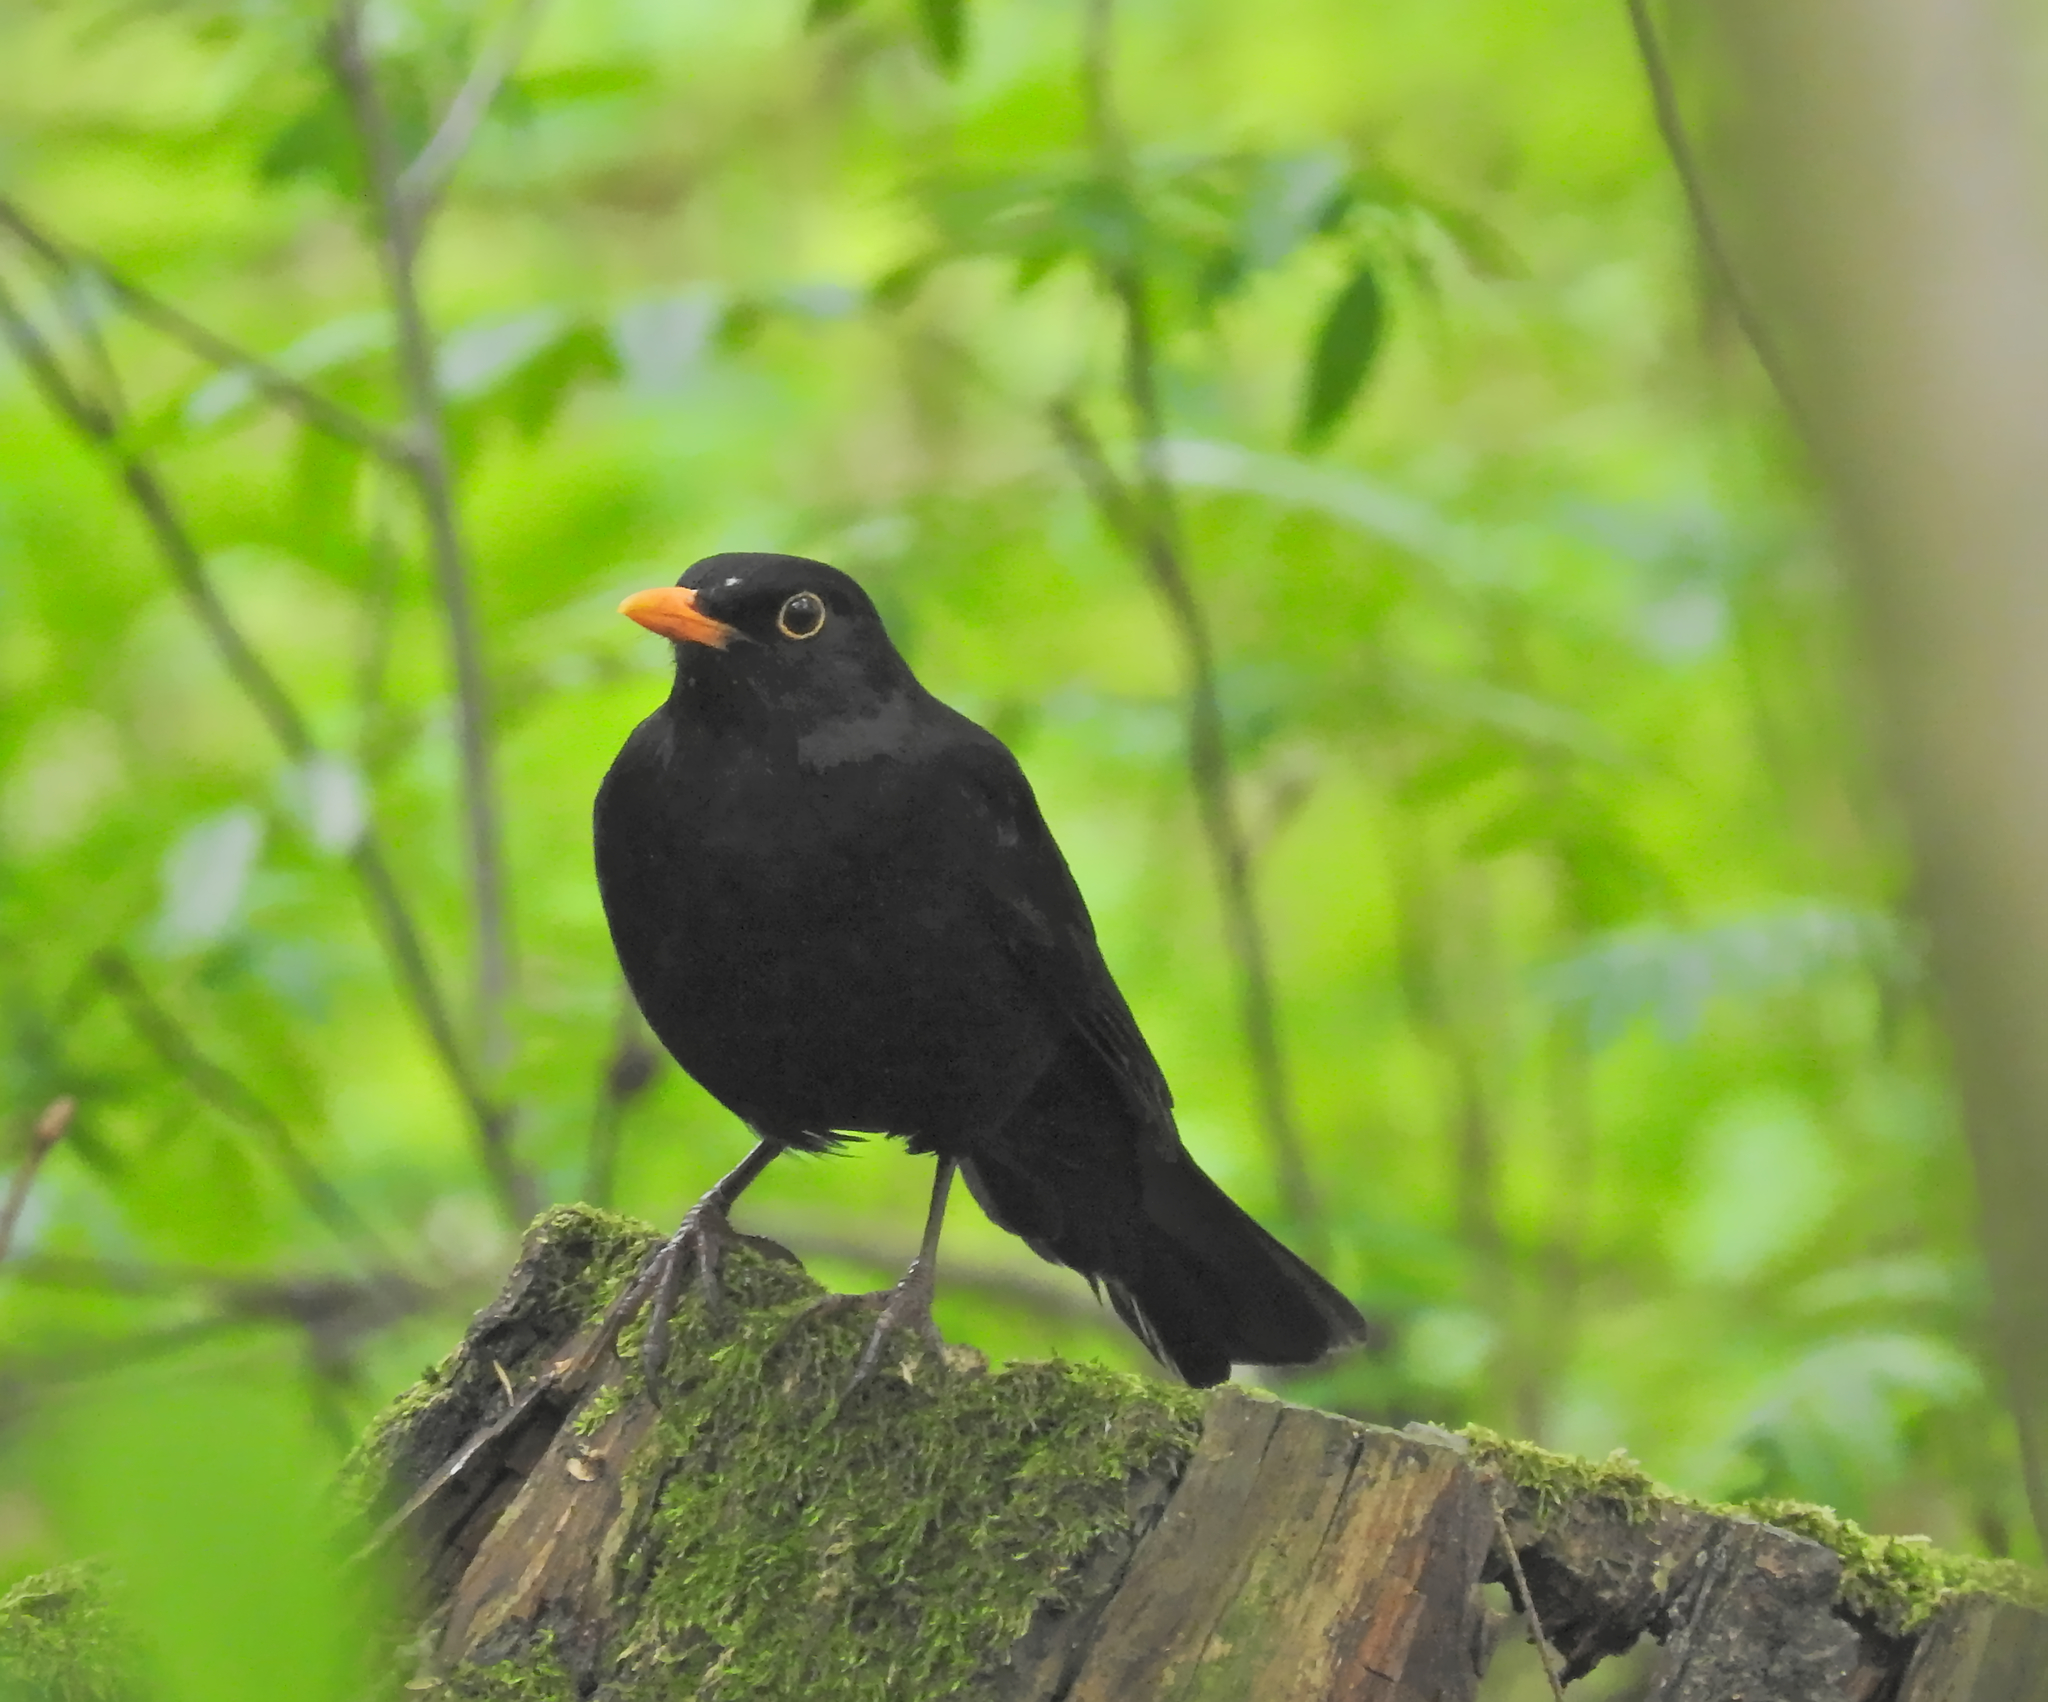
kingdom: Animalia
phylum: Chordata
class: Aves
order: Passeriformes
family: Turdidae
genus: Turdus
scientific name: Turdus merula
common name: Common blackbird
